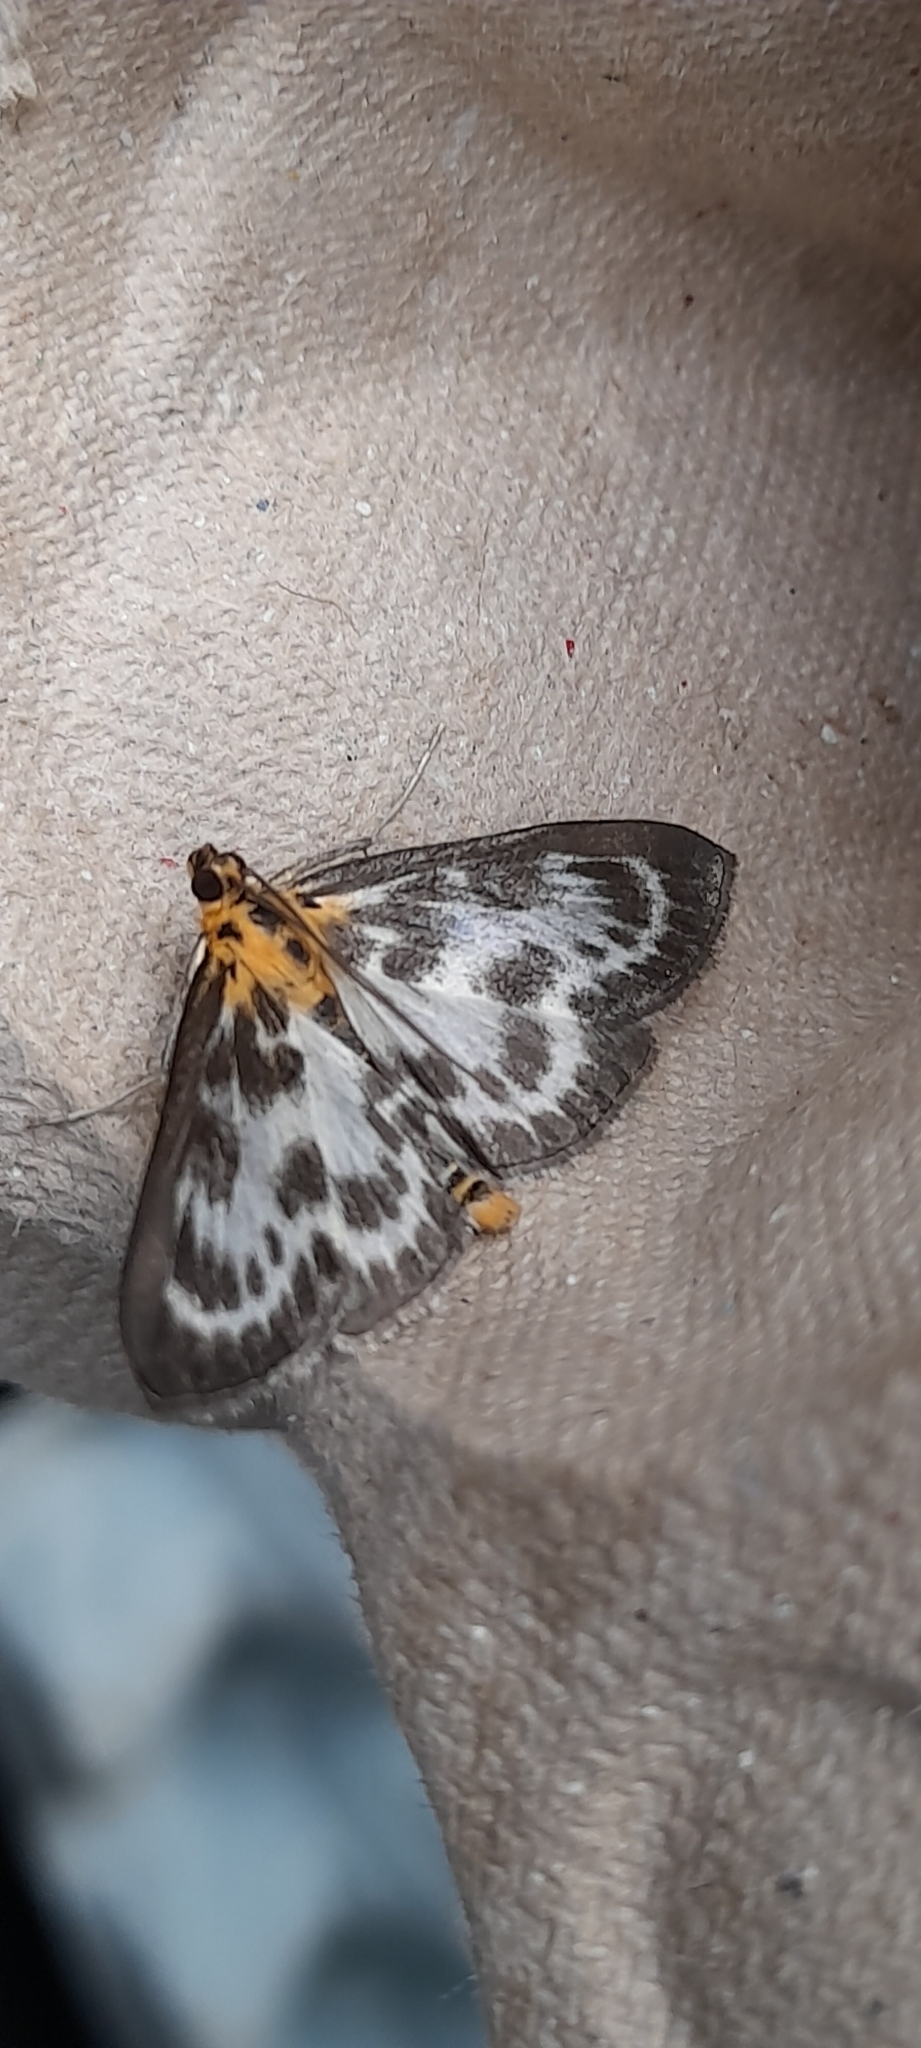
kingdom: Animalia
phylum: Arthropoda
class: Insecta
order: Lepidoptera
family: Crambidae
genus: Anania
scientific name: Anania hortulata
